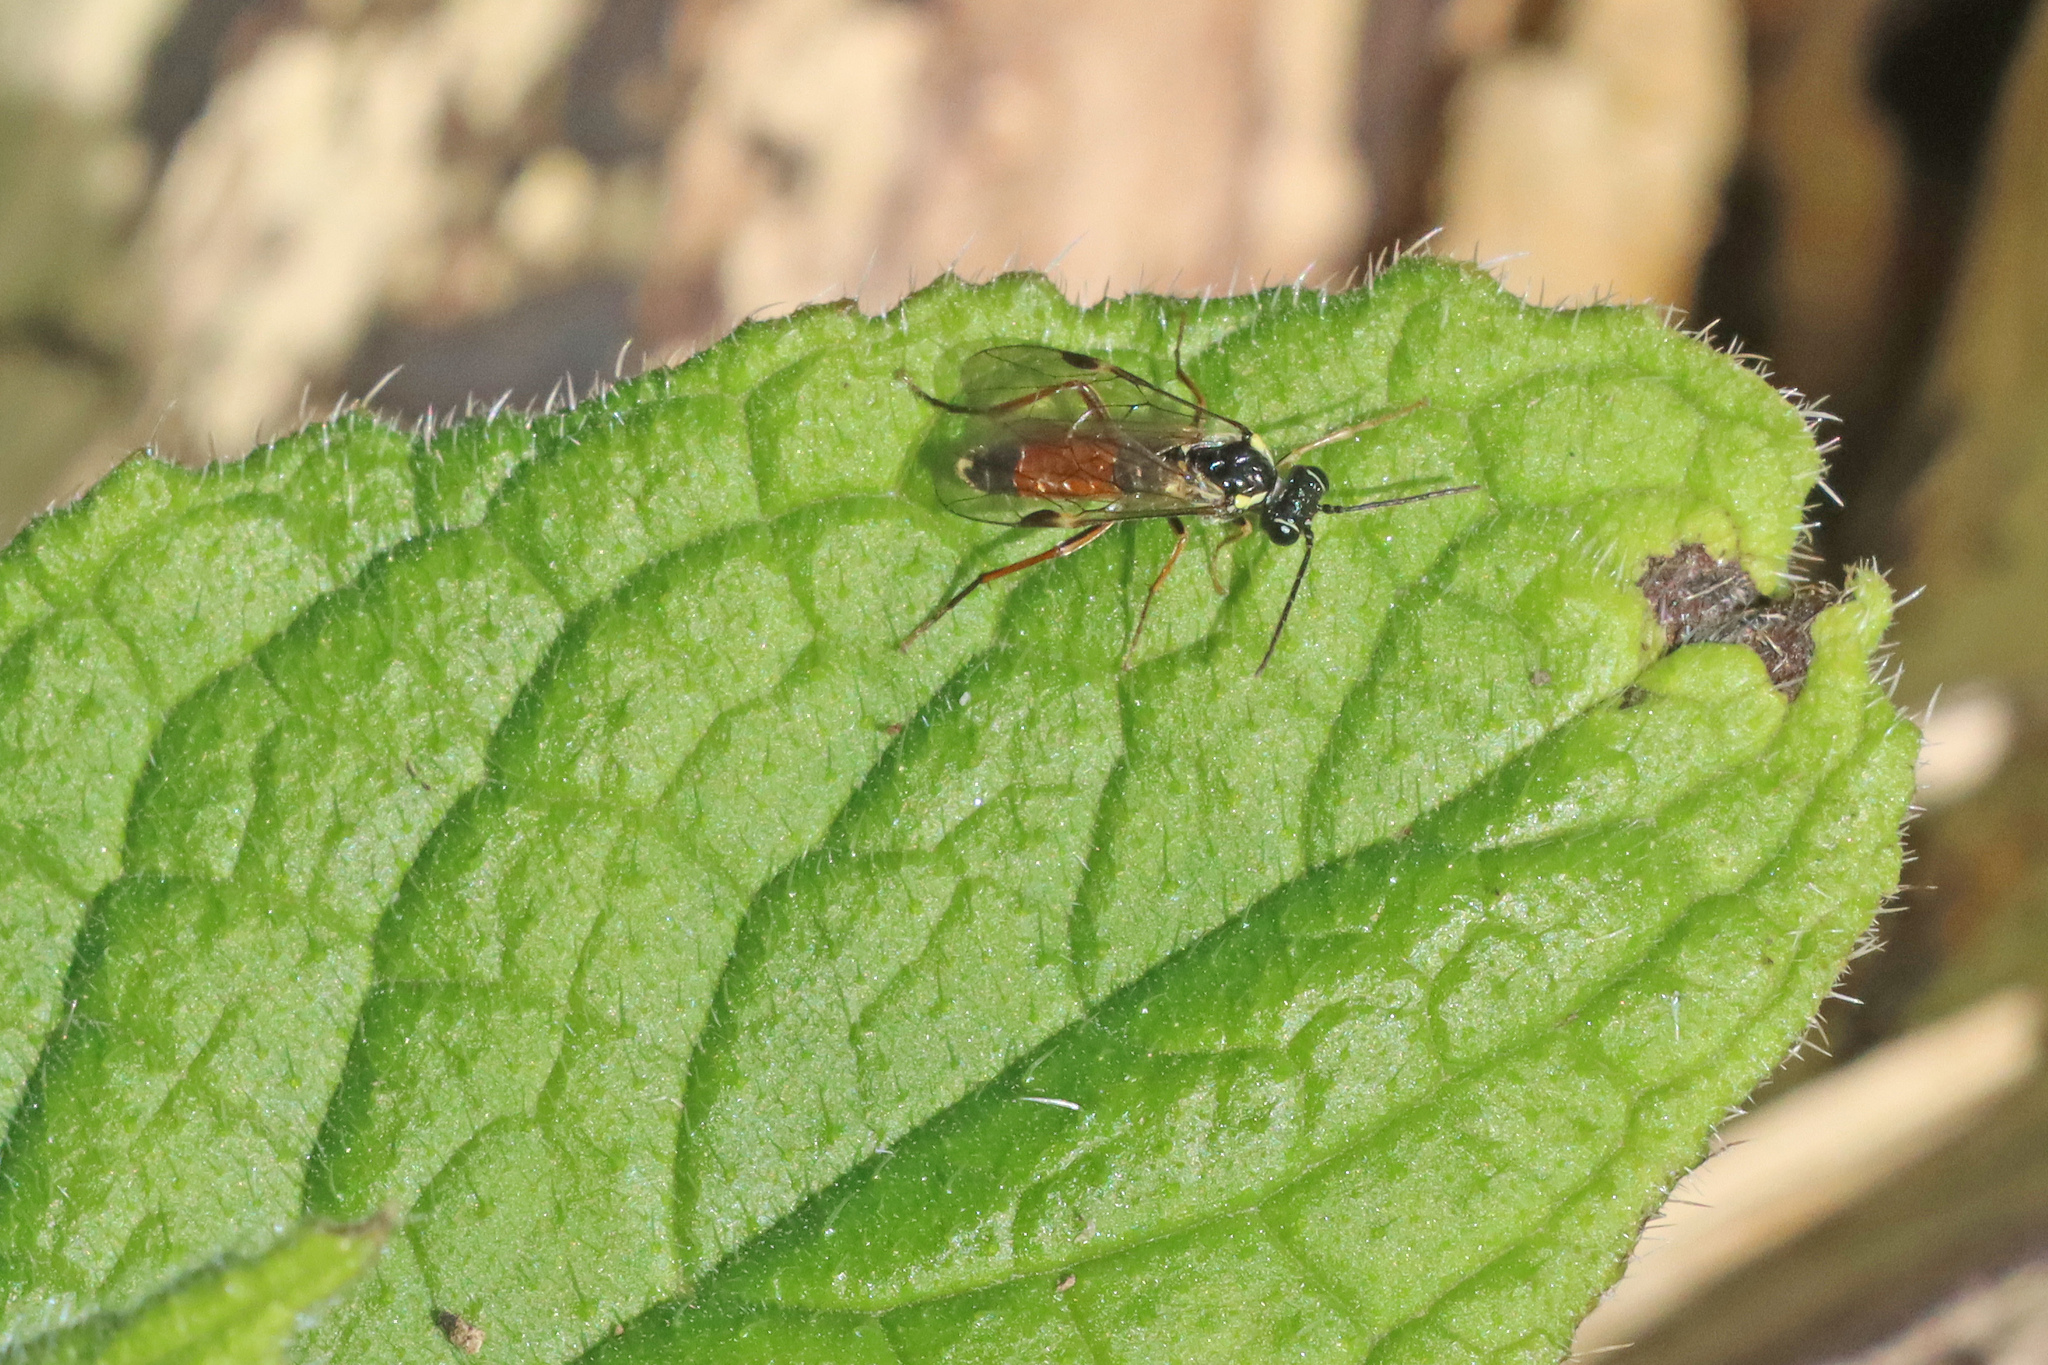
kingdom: Animalia
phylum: Arthropoda
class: Insecta
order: Hymenoptera
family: Tenthredinidae
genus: Aglaostigma
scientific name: Aglaostigma aucupariae
